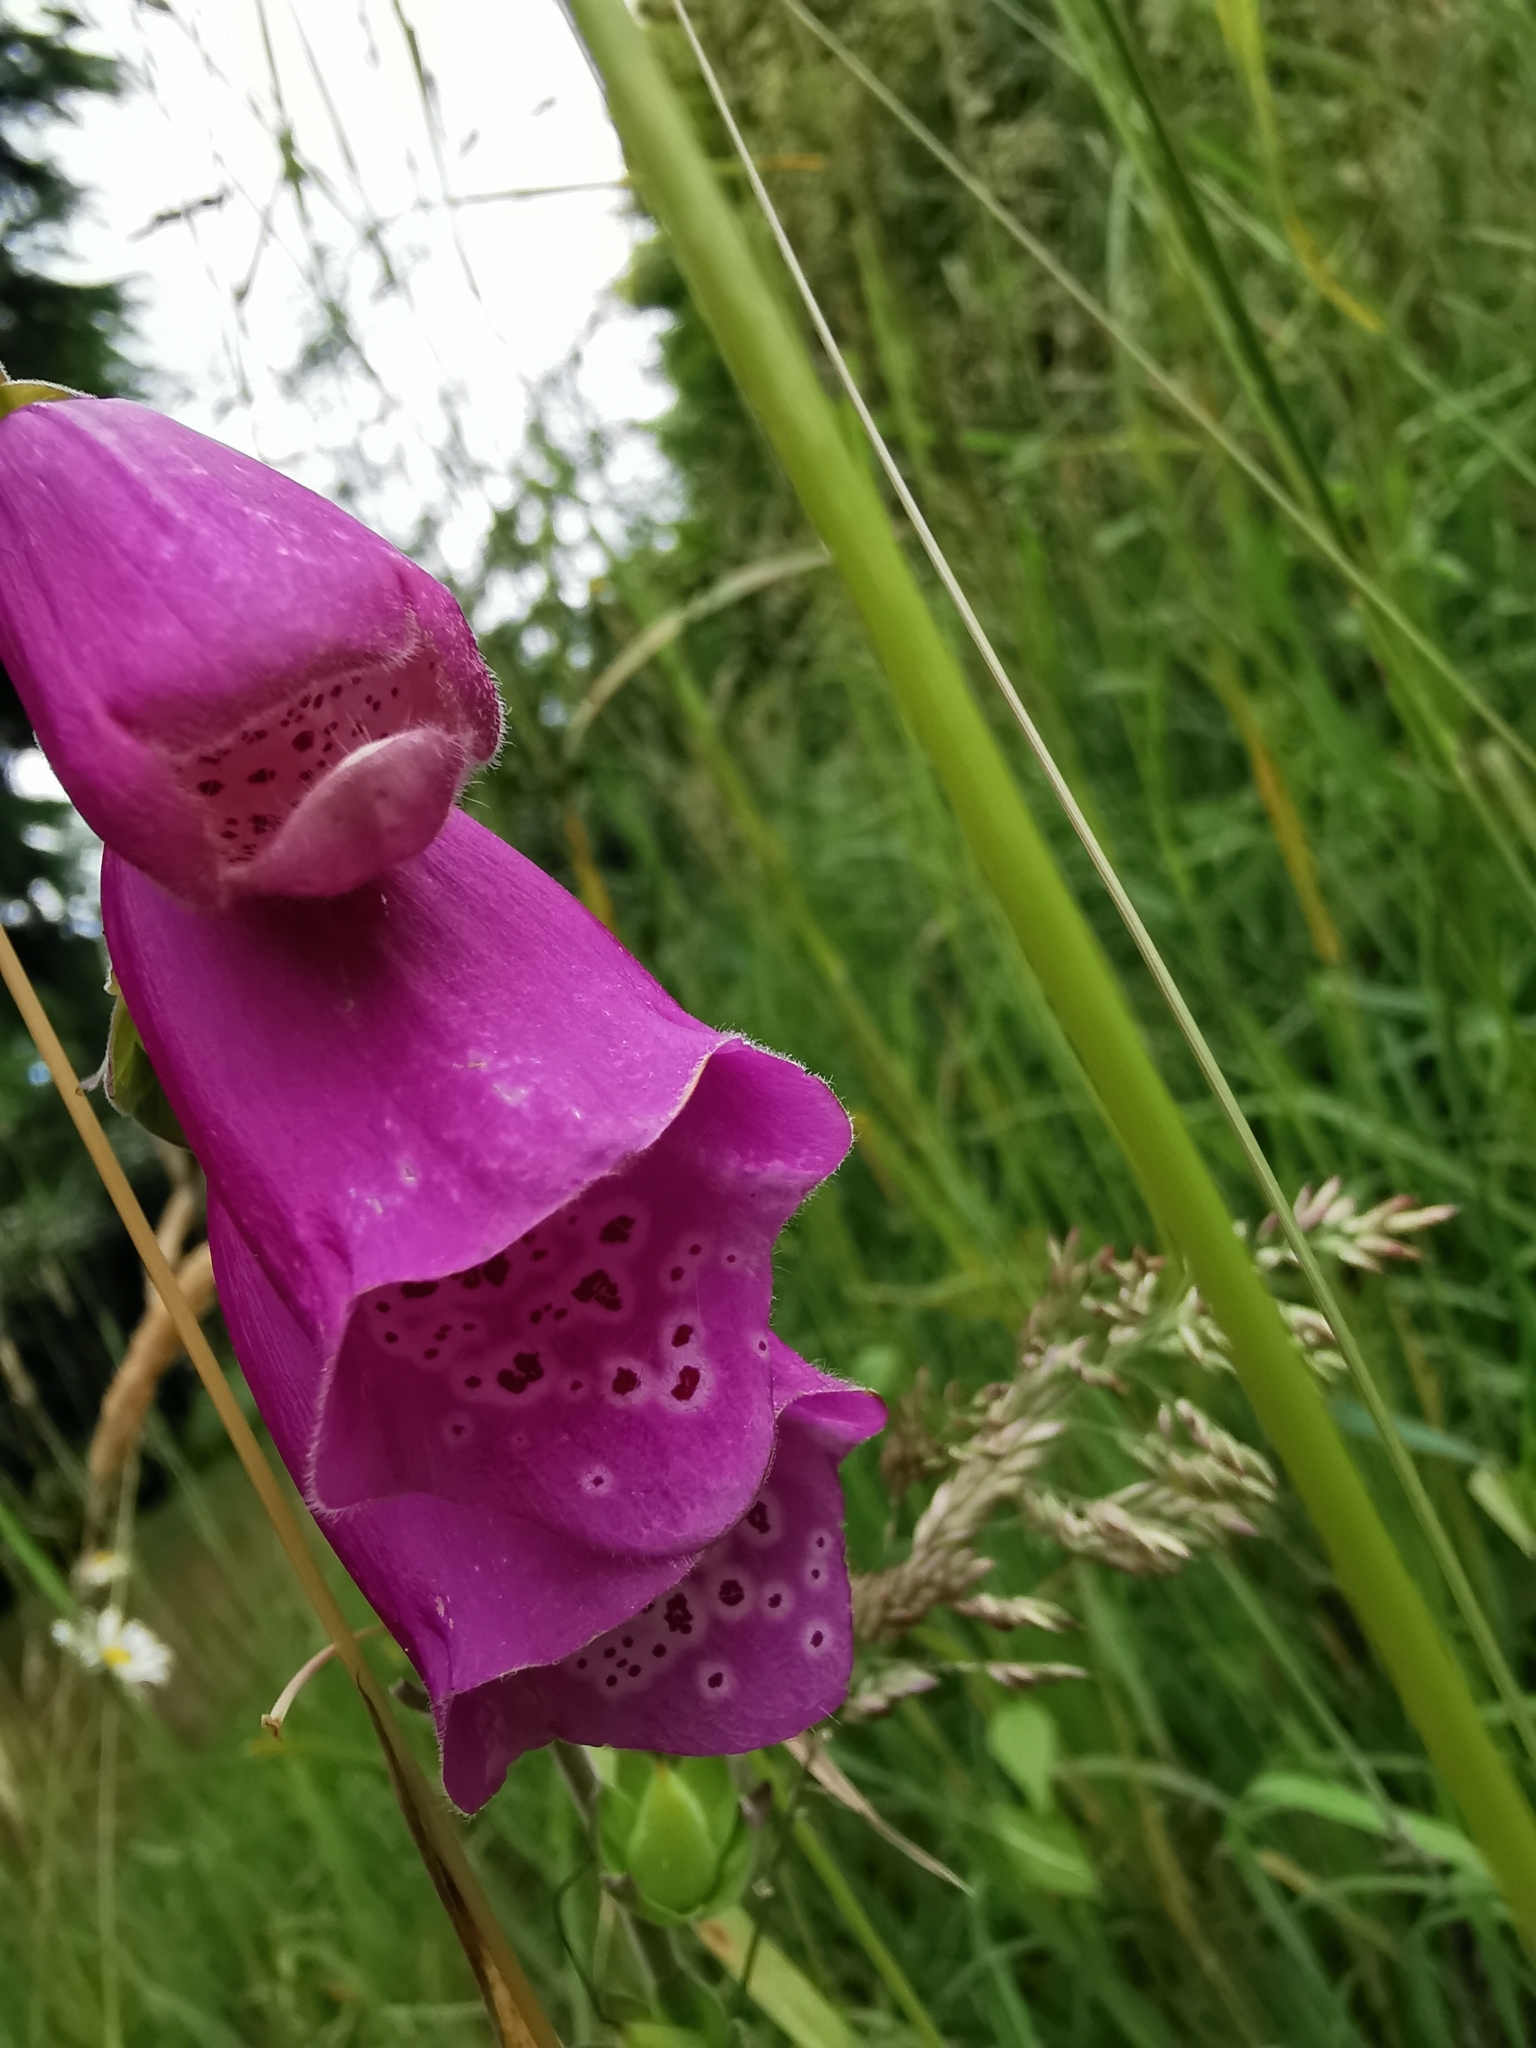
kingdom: Plantae
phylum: Tracheophyta
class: Magnoliopsida
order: Lamiales
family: Plantaginaceae
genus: Digitalis
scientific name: Digitalis purpurea
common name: Foxglove
